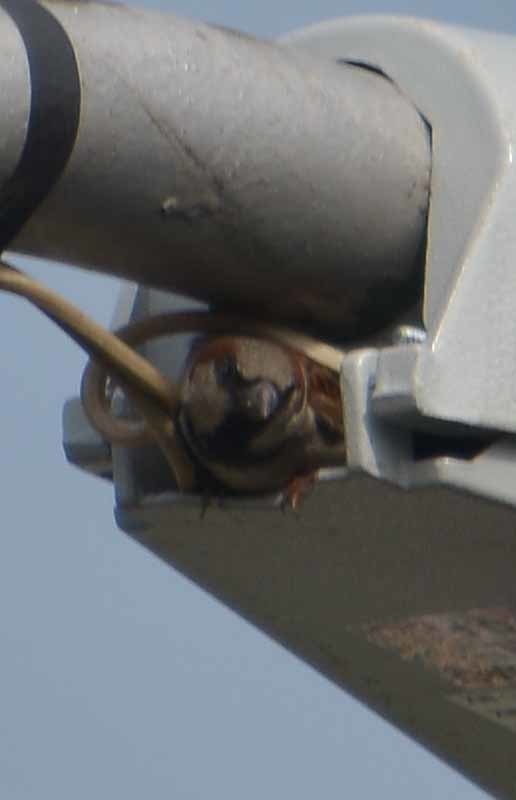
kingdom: Animalia
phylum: Chordata
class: Aves
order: Passeriformes
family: Passeridae
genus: Passer
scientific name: Passer domesticus
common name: House sparrow
